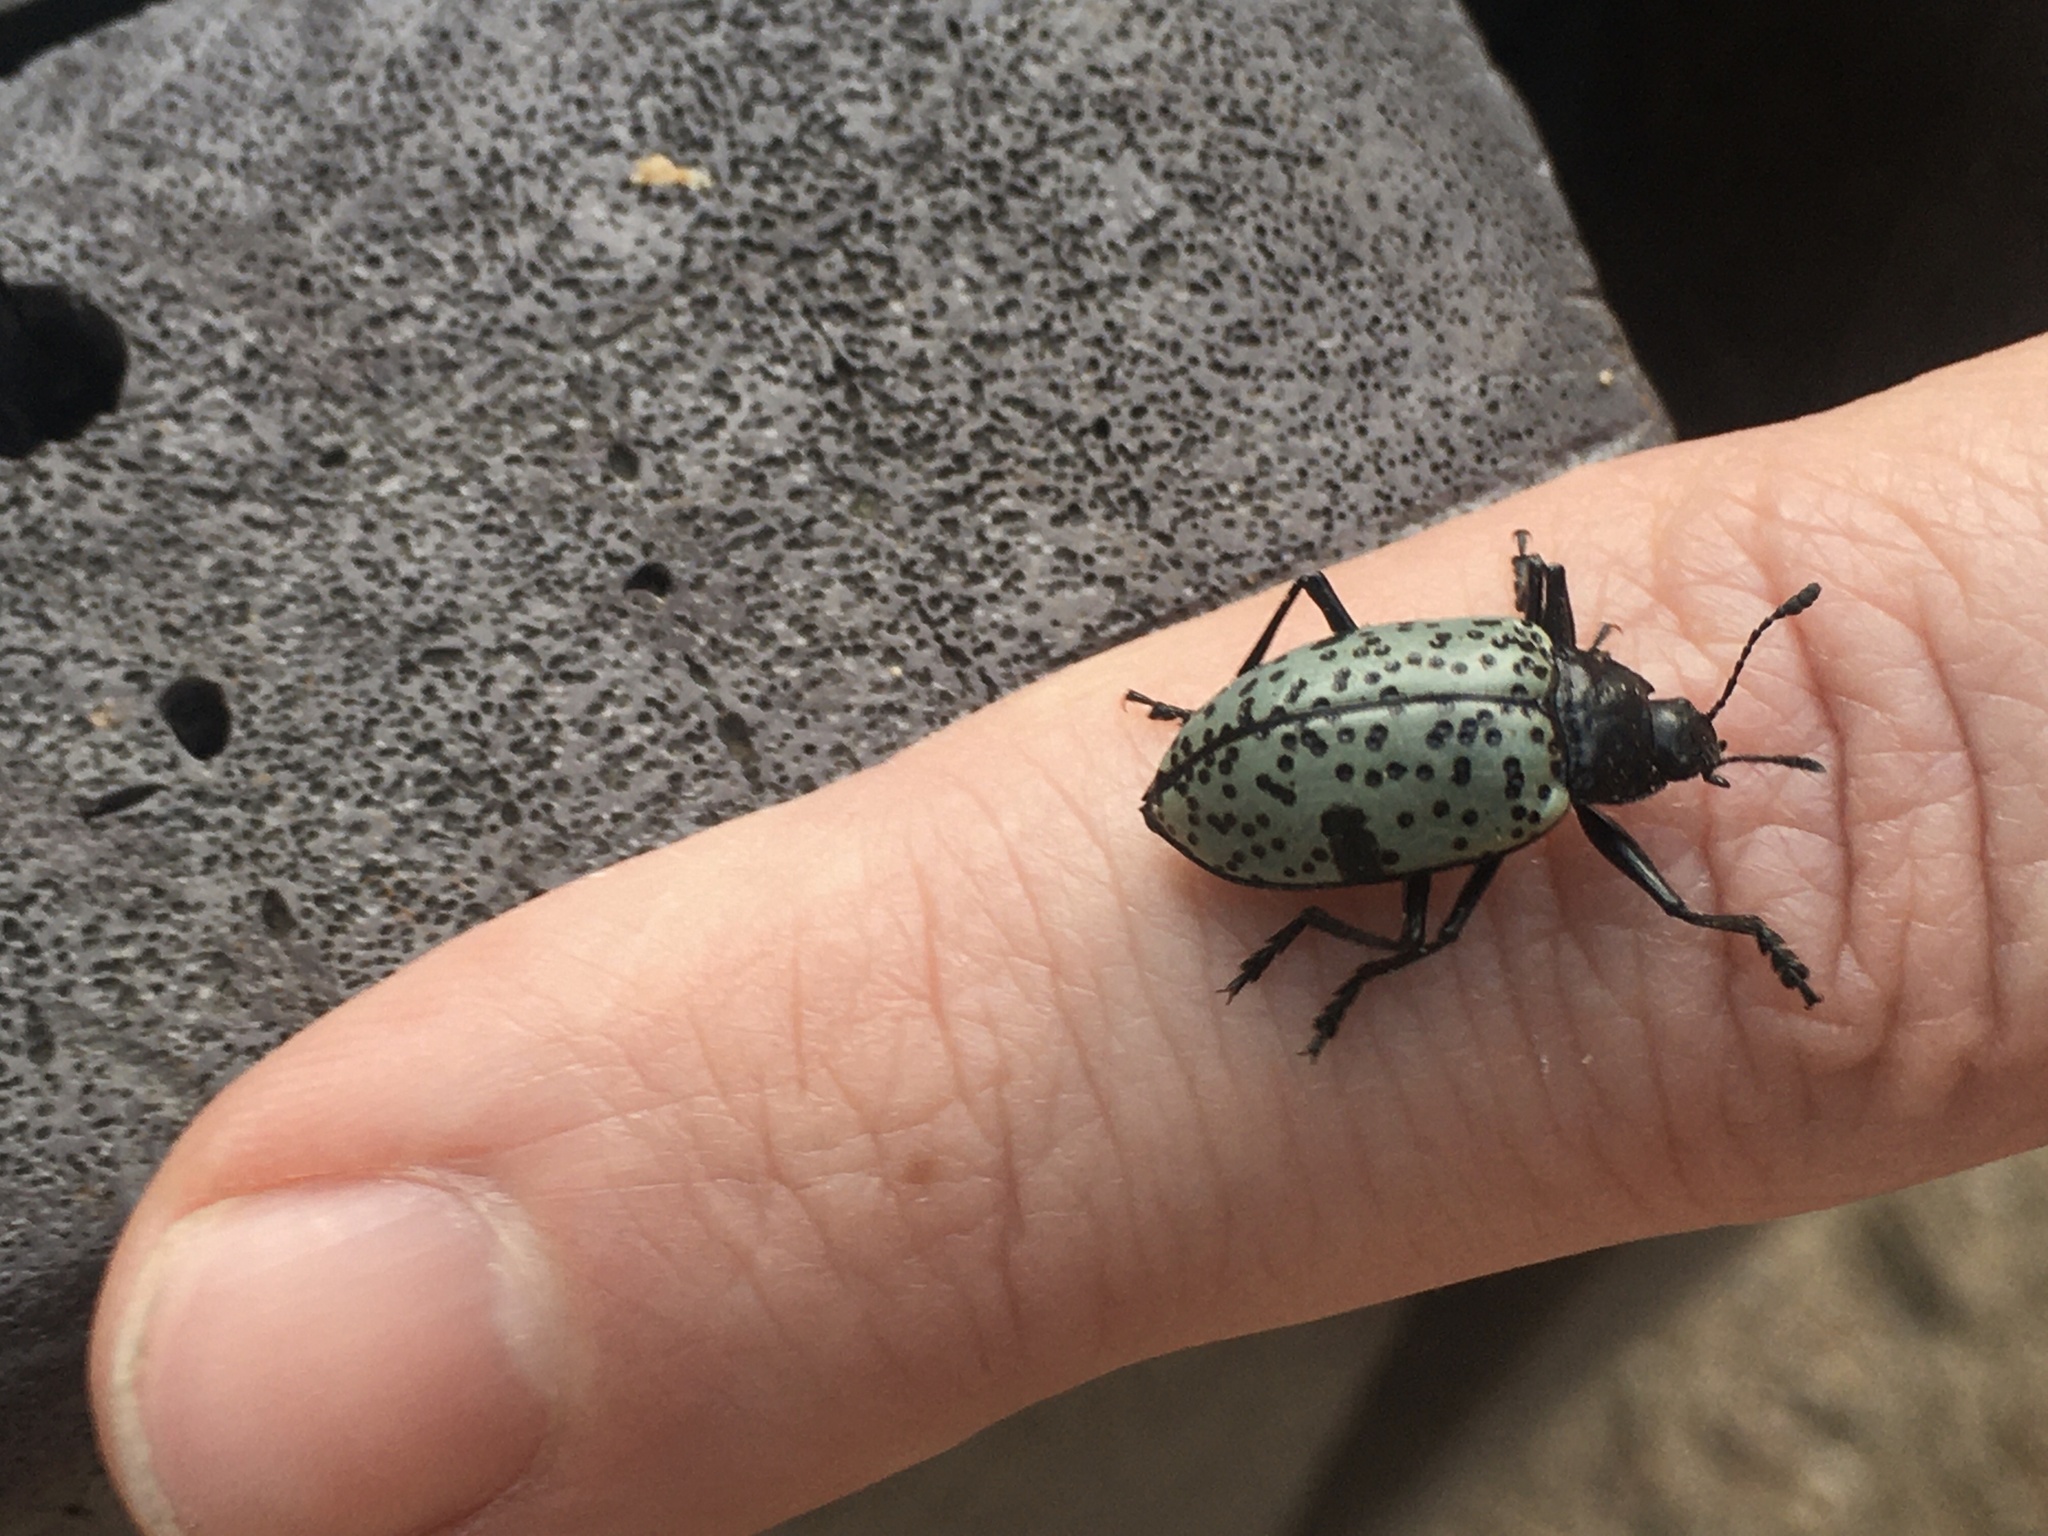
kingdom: Animalia
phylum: Arthropoda
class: Insecta
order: Coleoptera
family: Erotylidae
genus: Gibbifer
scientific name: Gibbifer californicus
